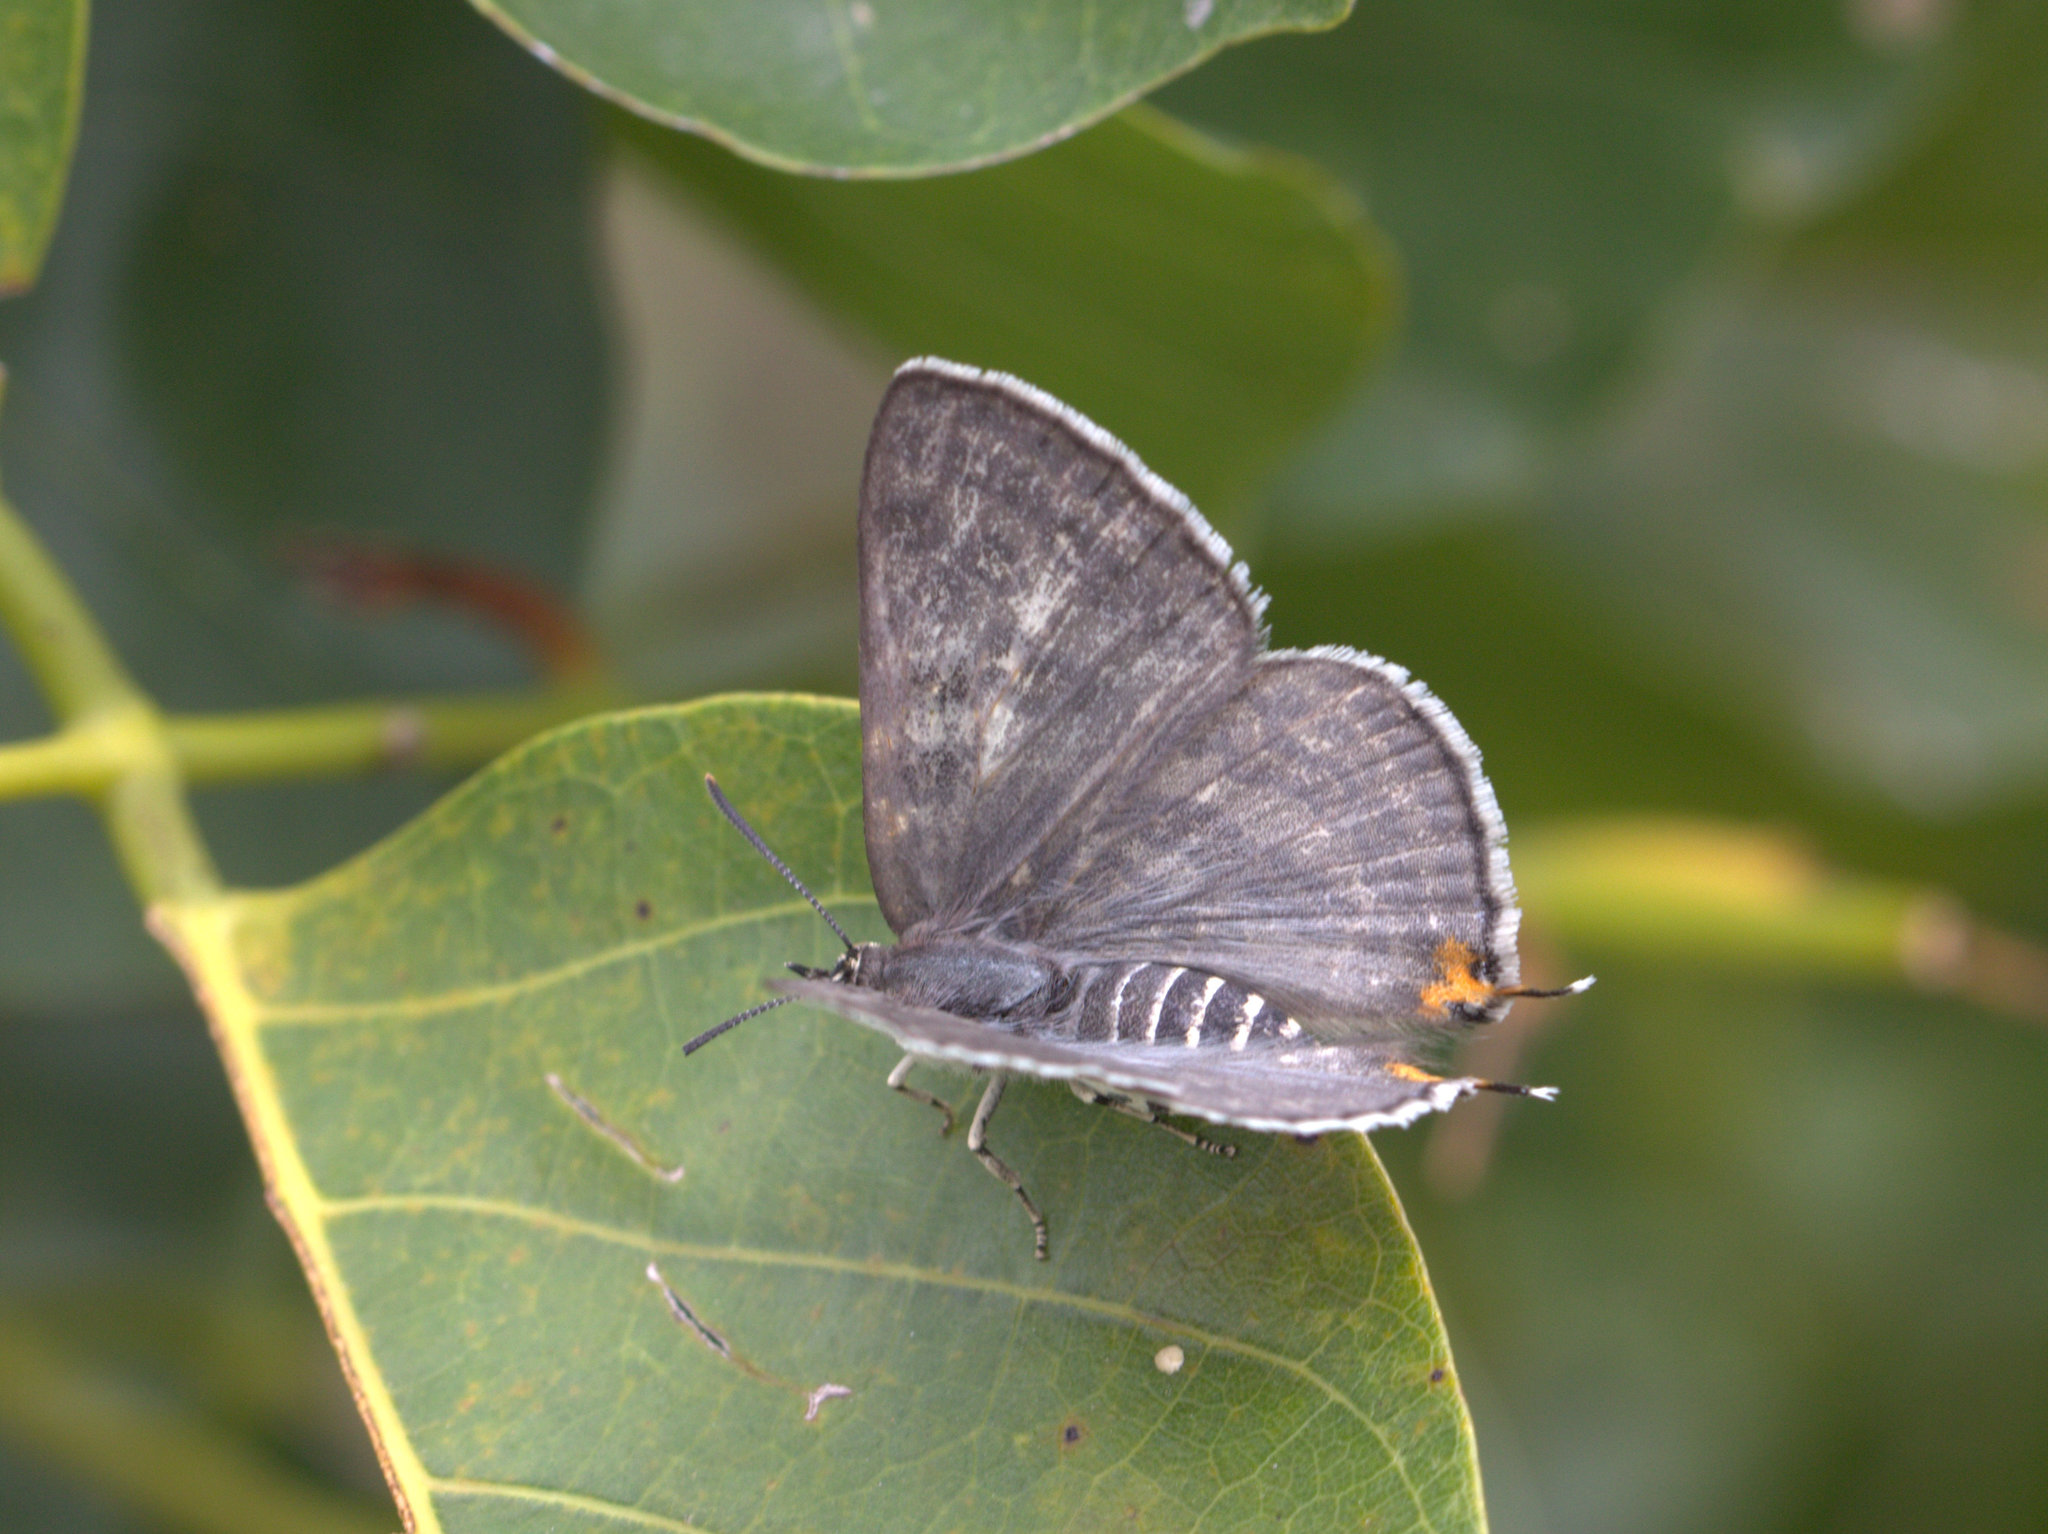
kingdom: Animalia
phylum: Arthropoda
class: Insecta
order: Lepidoptera
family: Lycaenidae
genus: Aphnaeus
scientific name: Aphnaeus lilacinus
